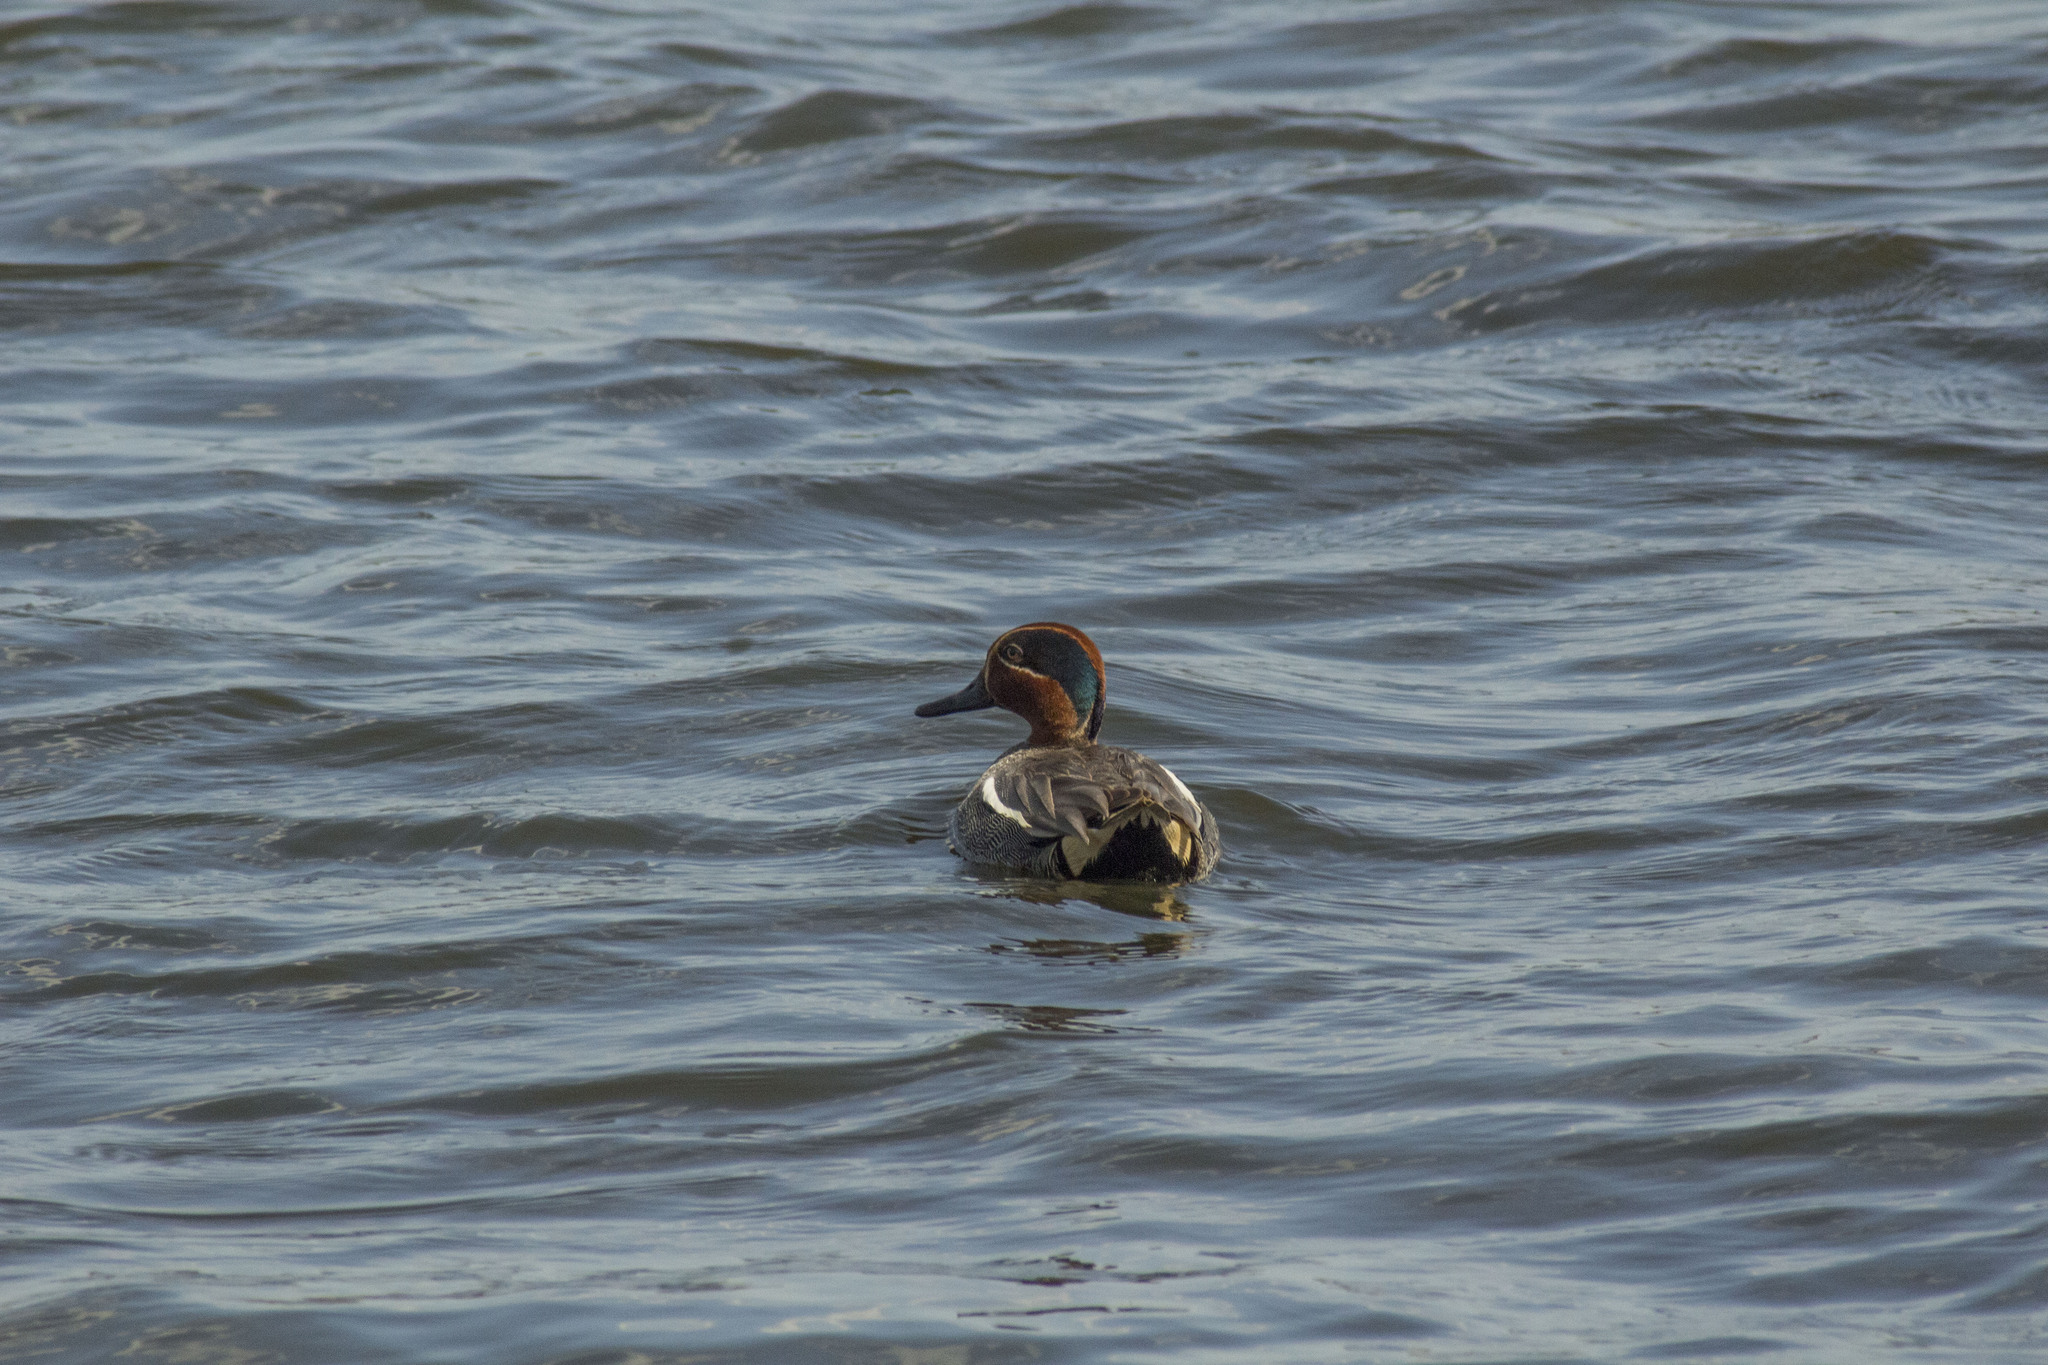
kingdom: Animalia
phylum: Chordata
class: Aves
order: Anseriformes
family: Anatidae
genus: Anas
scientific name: Anas crecca
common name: Eurasian teal
